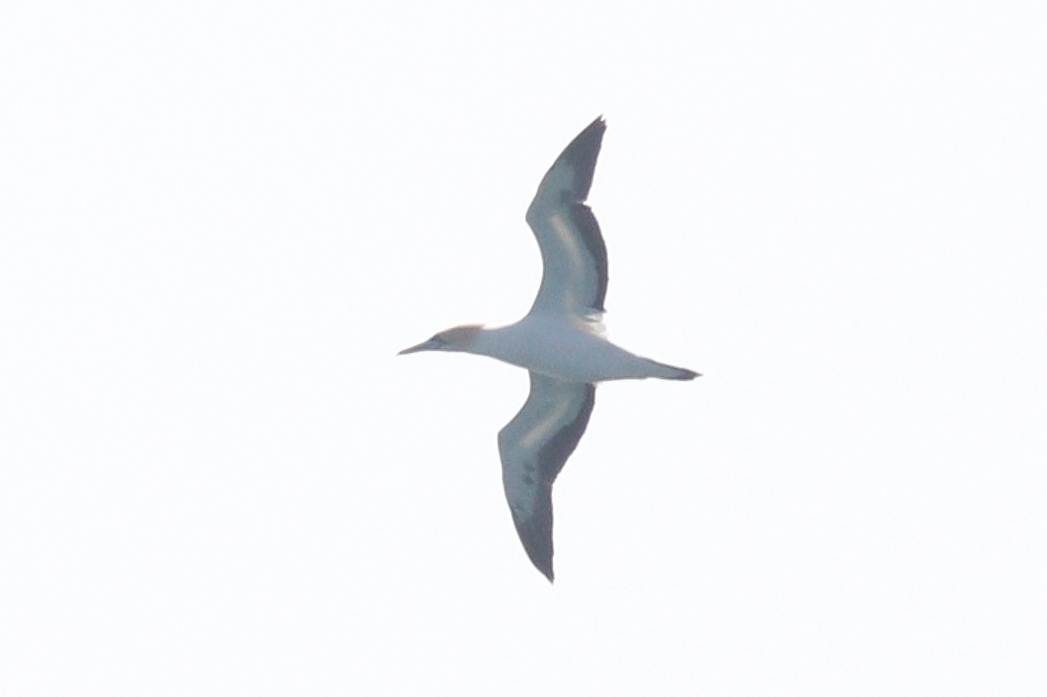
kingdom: Animalia
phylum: Chordata
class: Aves
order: Suliformes
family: Sulidae
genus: Morus
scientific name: Morus capensis
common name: Cape gannet
